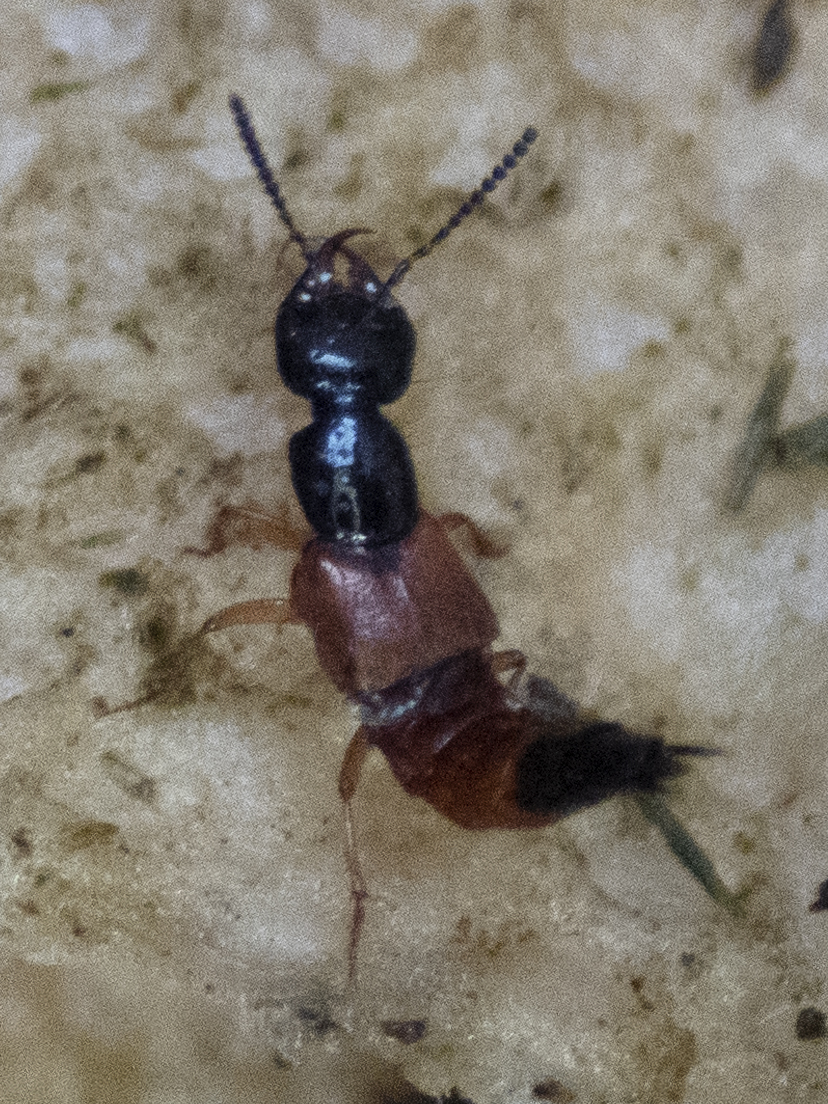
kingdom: Animalia
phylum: Arthropoda
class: Insecta
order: Coleoptera
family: Staphylinidae
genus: Belonuchus
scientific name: Belonuchus rufipennis
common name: Large rove beetle
